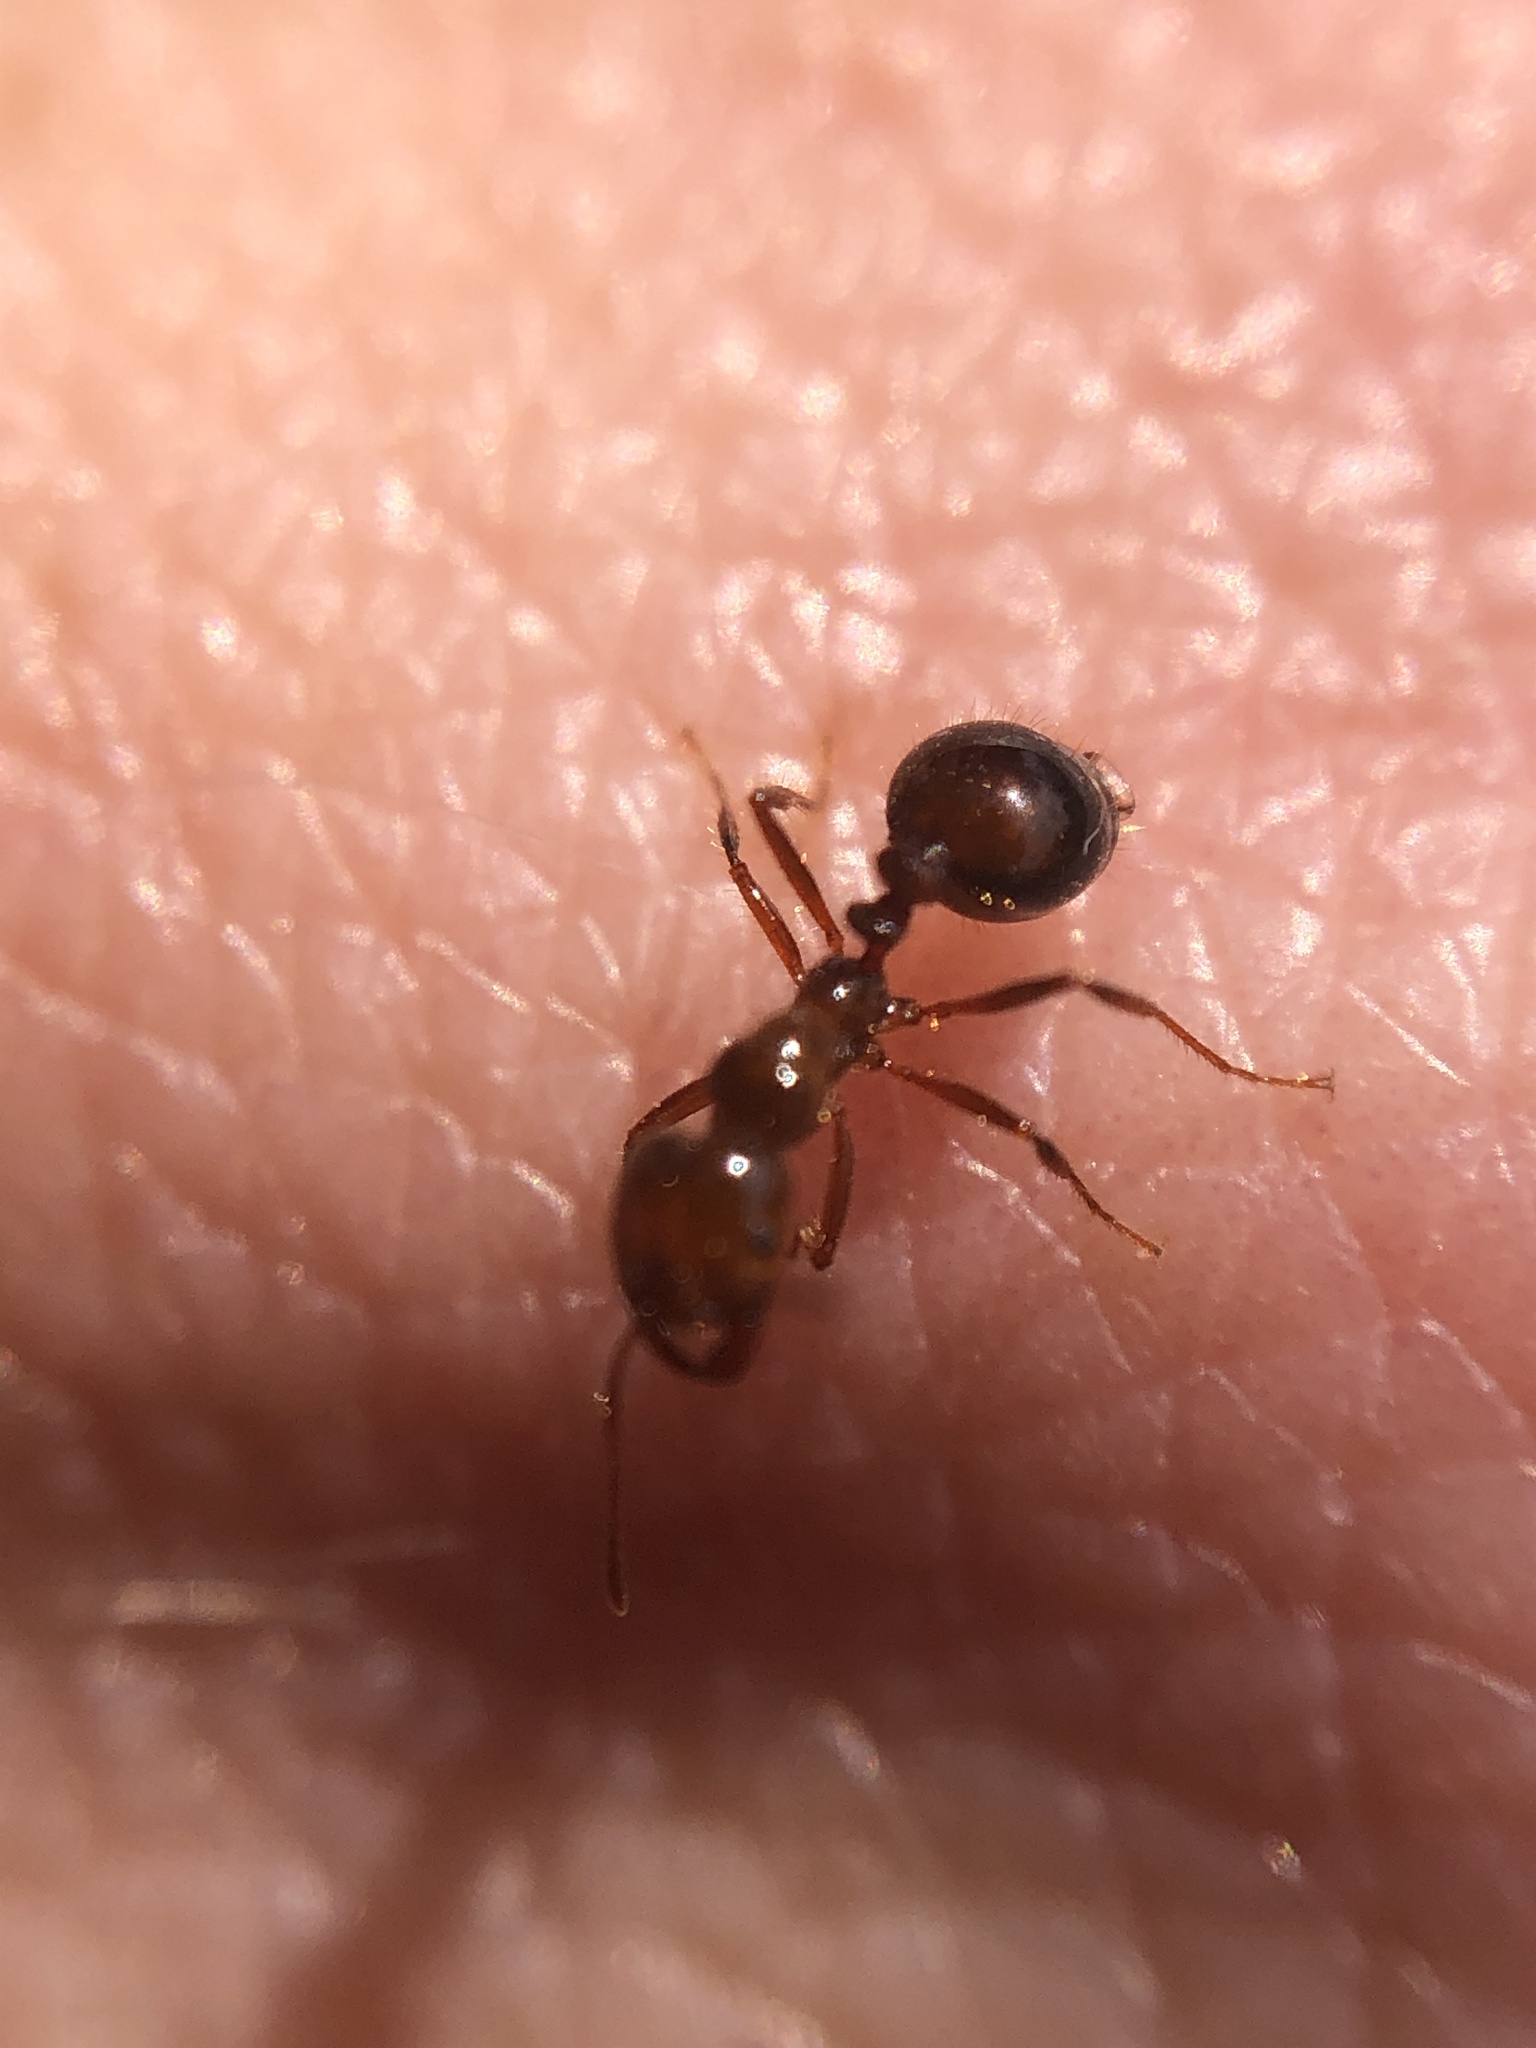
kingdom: Animalia
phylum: Arthropoda
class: Insecta
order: Hymenoptera
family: Formicidae
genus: Solenopsis
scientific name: Solenopsis invicta
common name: Red imported fire ant
